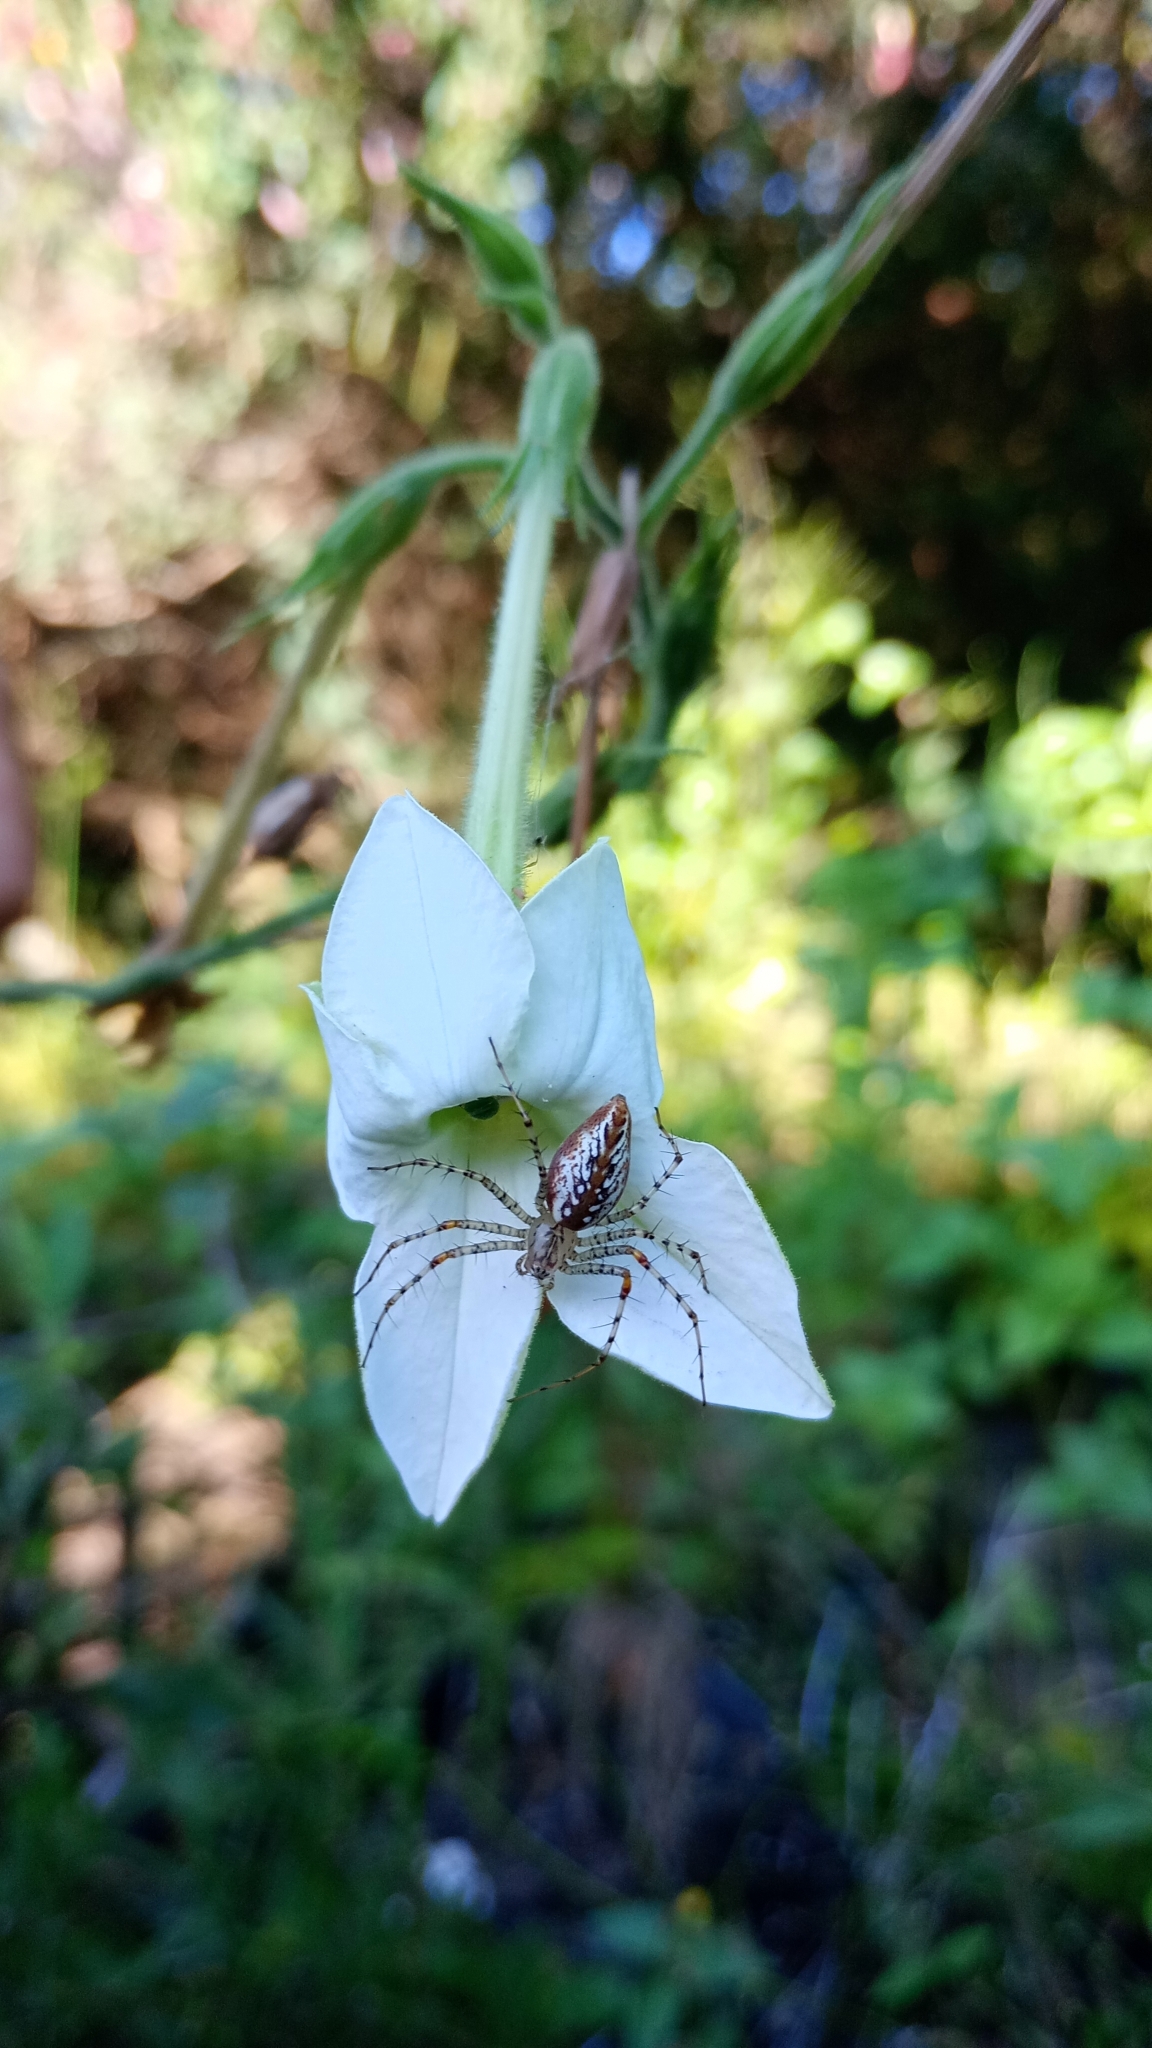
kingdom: Animalia
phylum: Arthropoda
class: Arachnida
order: Araneae
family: Oxyopidae
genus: Peucetia
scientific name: Peucetia flava
